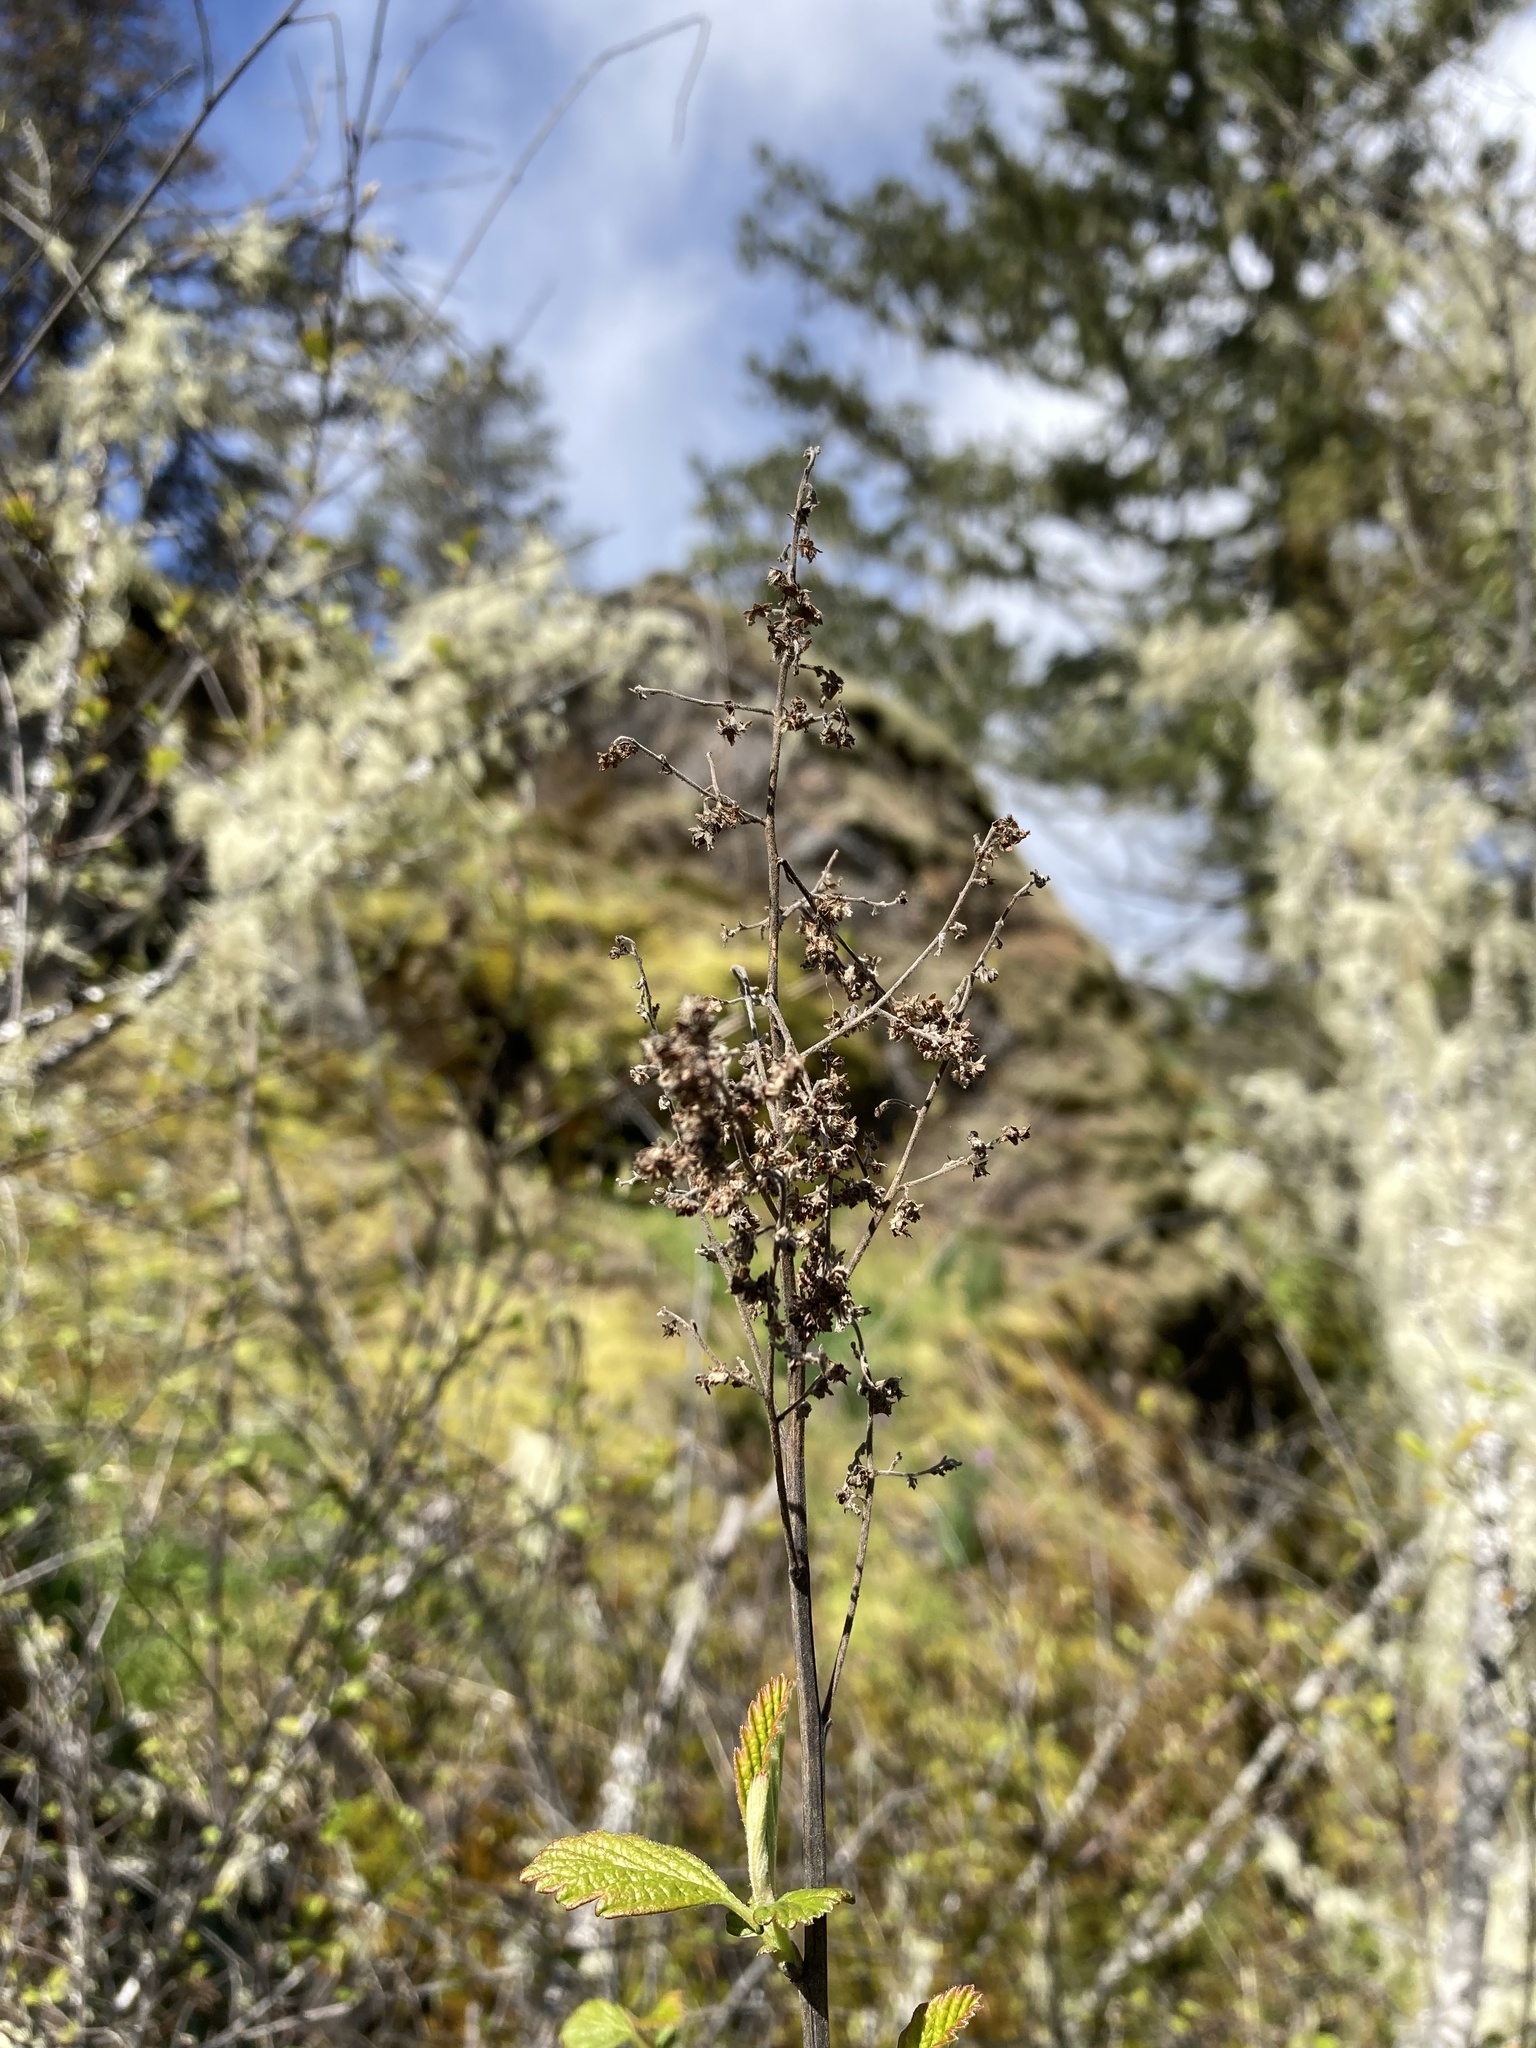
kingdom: Plantae
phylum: Tracheophyta
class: Magnoliopsida
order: Rosales
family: Rosaceae
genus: Holodiscus
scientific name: Holodiscus discolor
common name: Oceanspray
